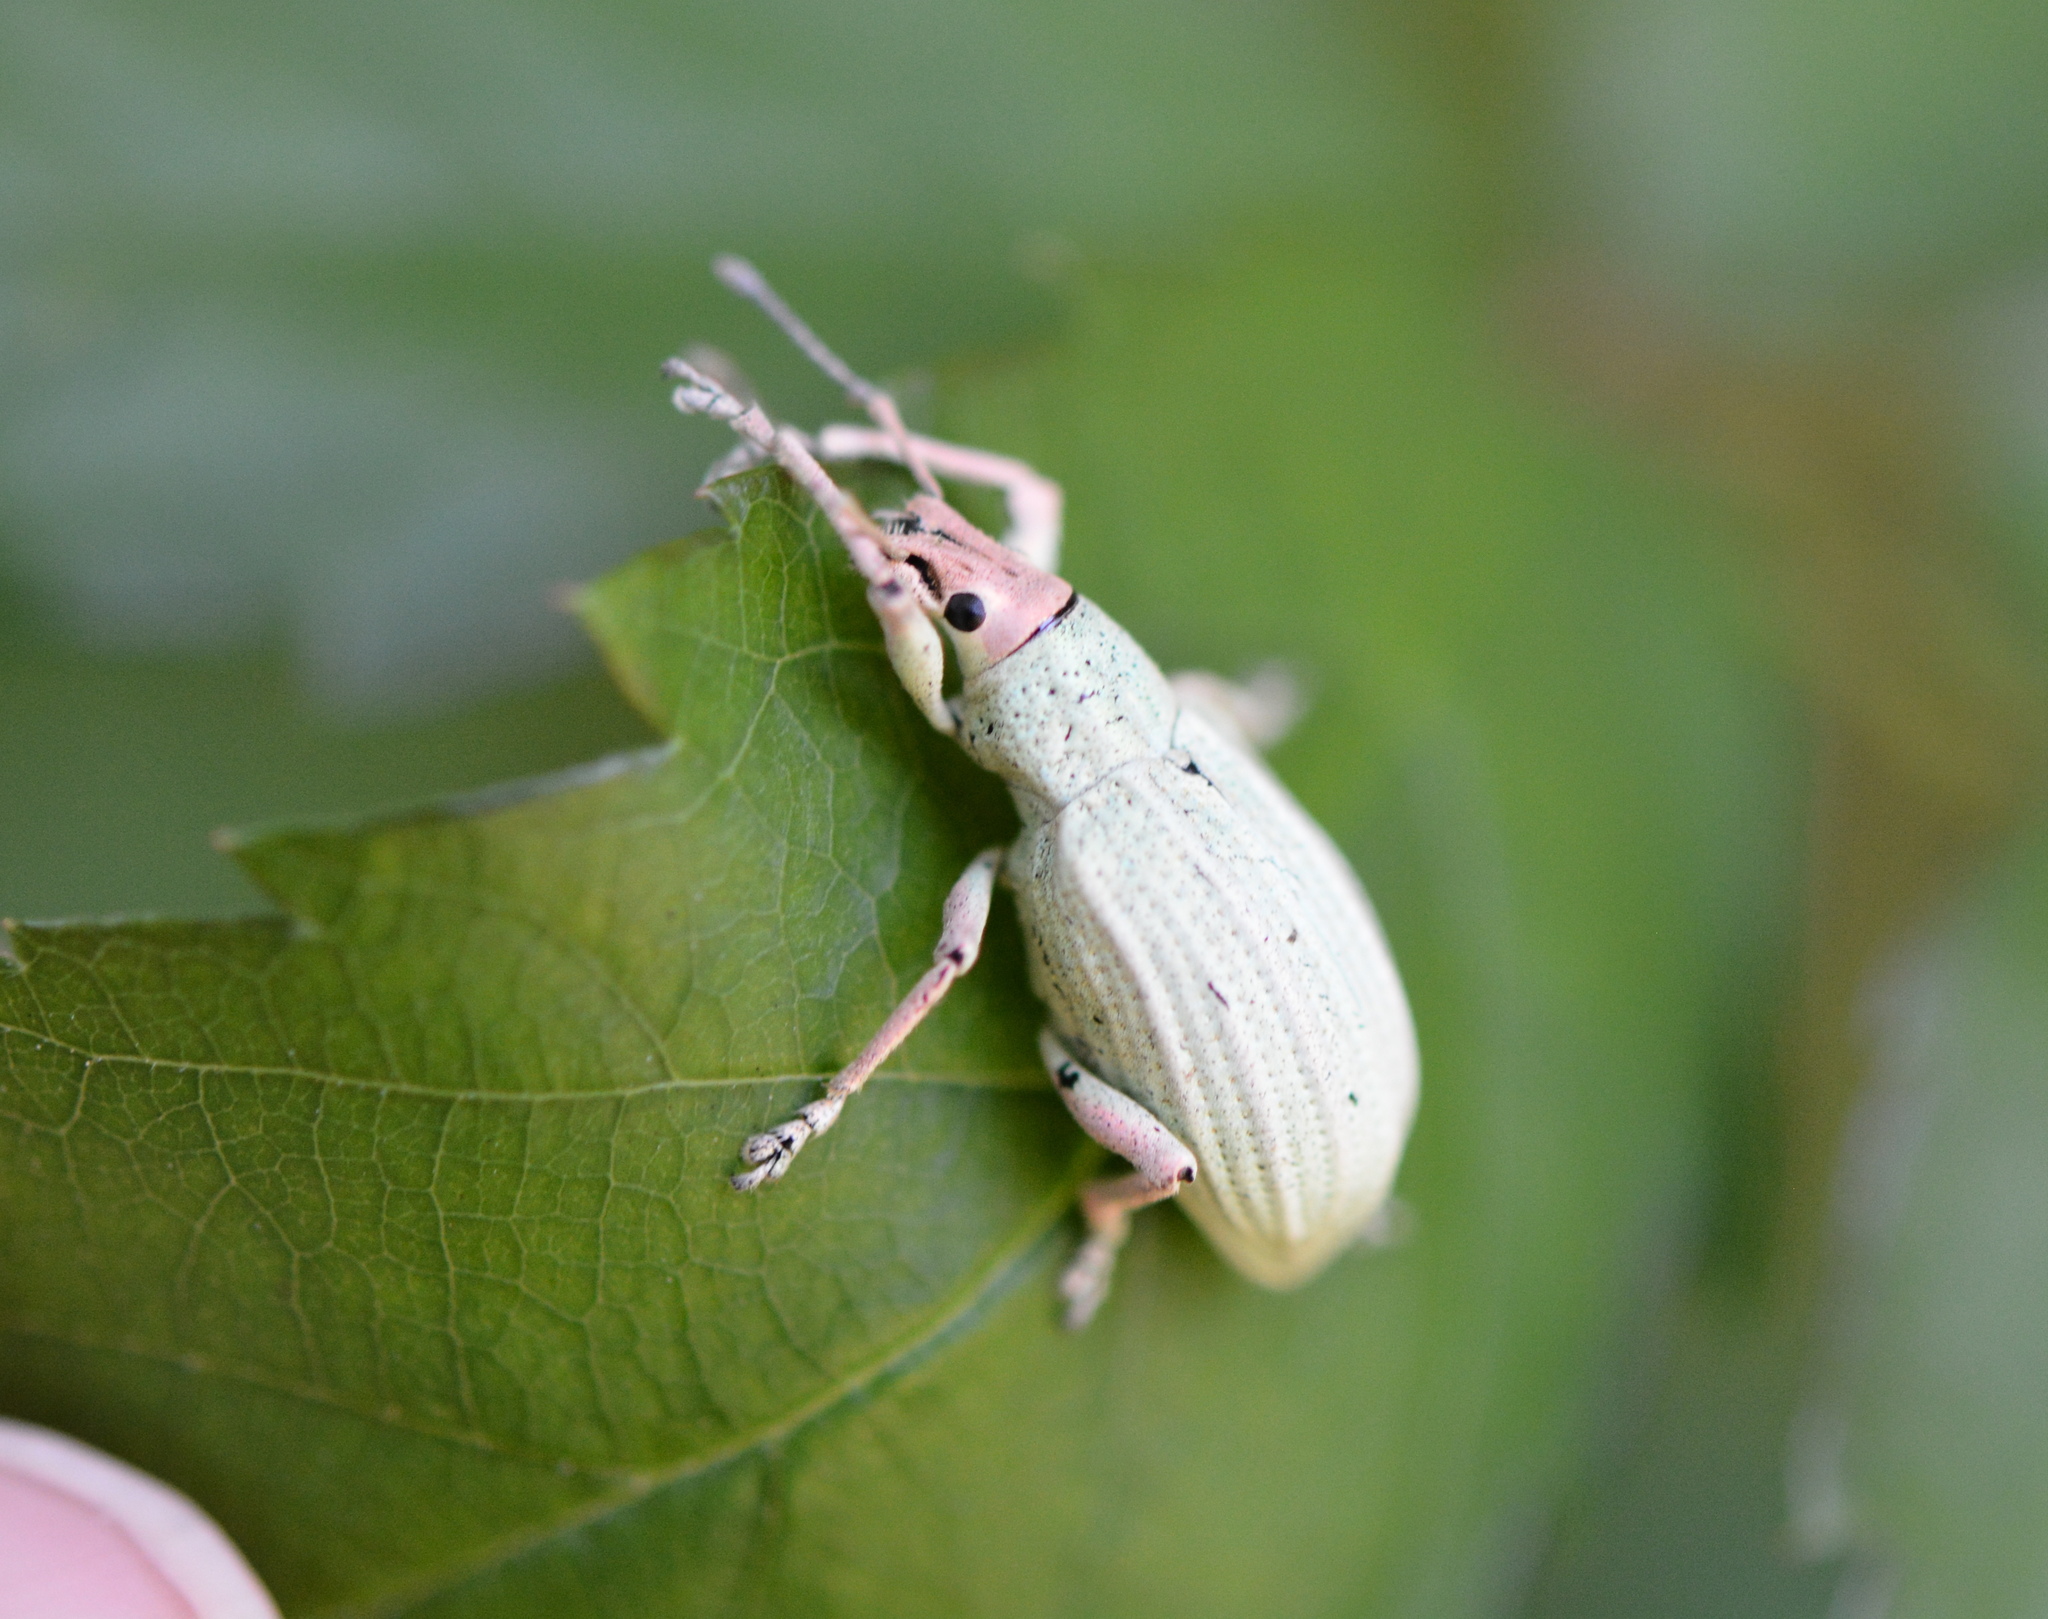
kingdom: Animalia
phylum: Arthropoda
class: Insecta
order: Coleoptera
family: Curculionidae
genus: Compsus
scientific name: Compsus auricephalus
